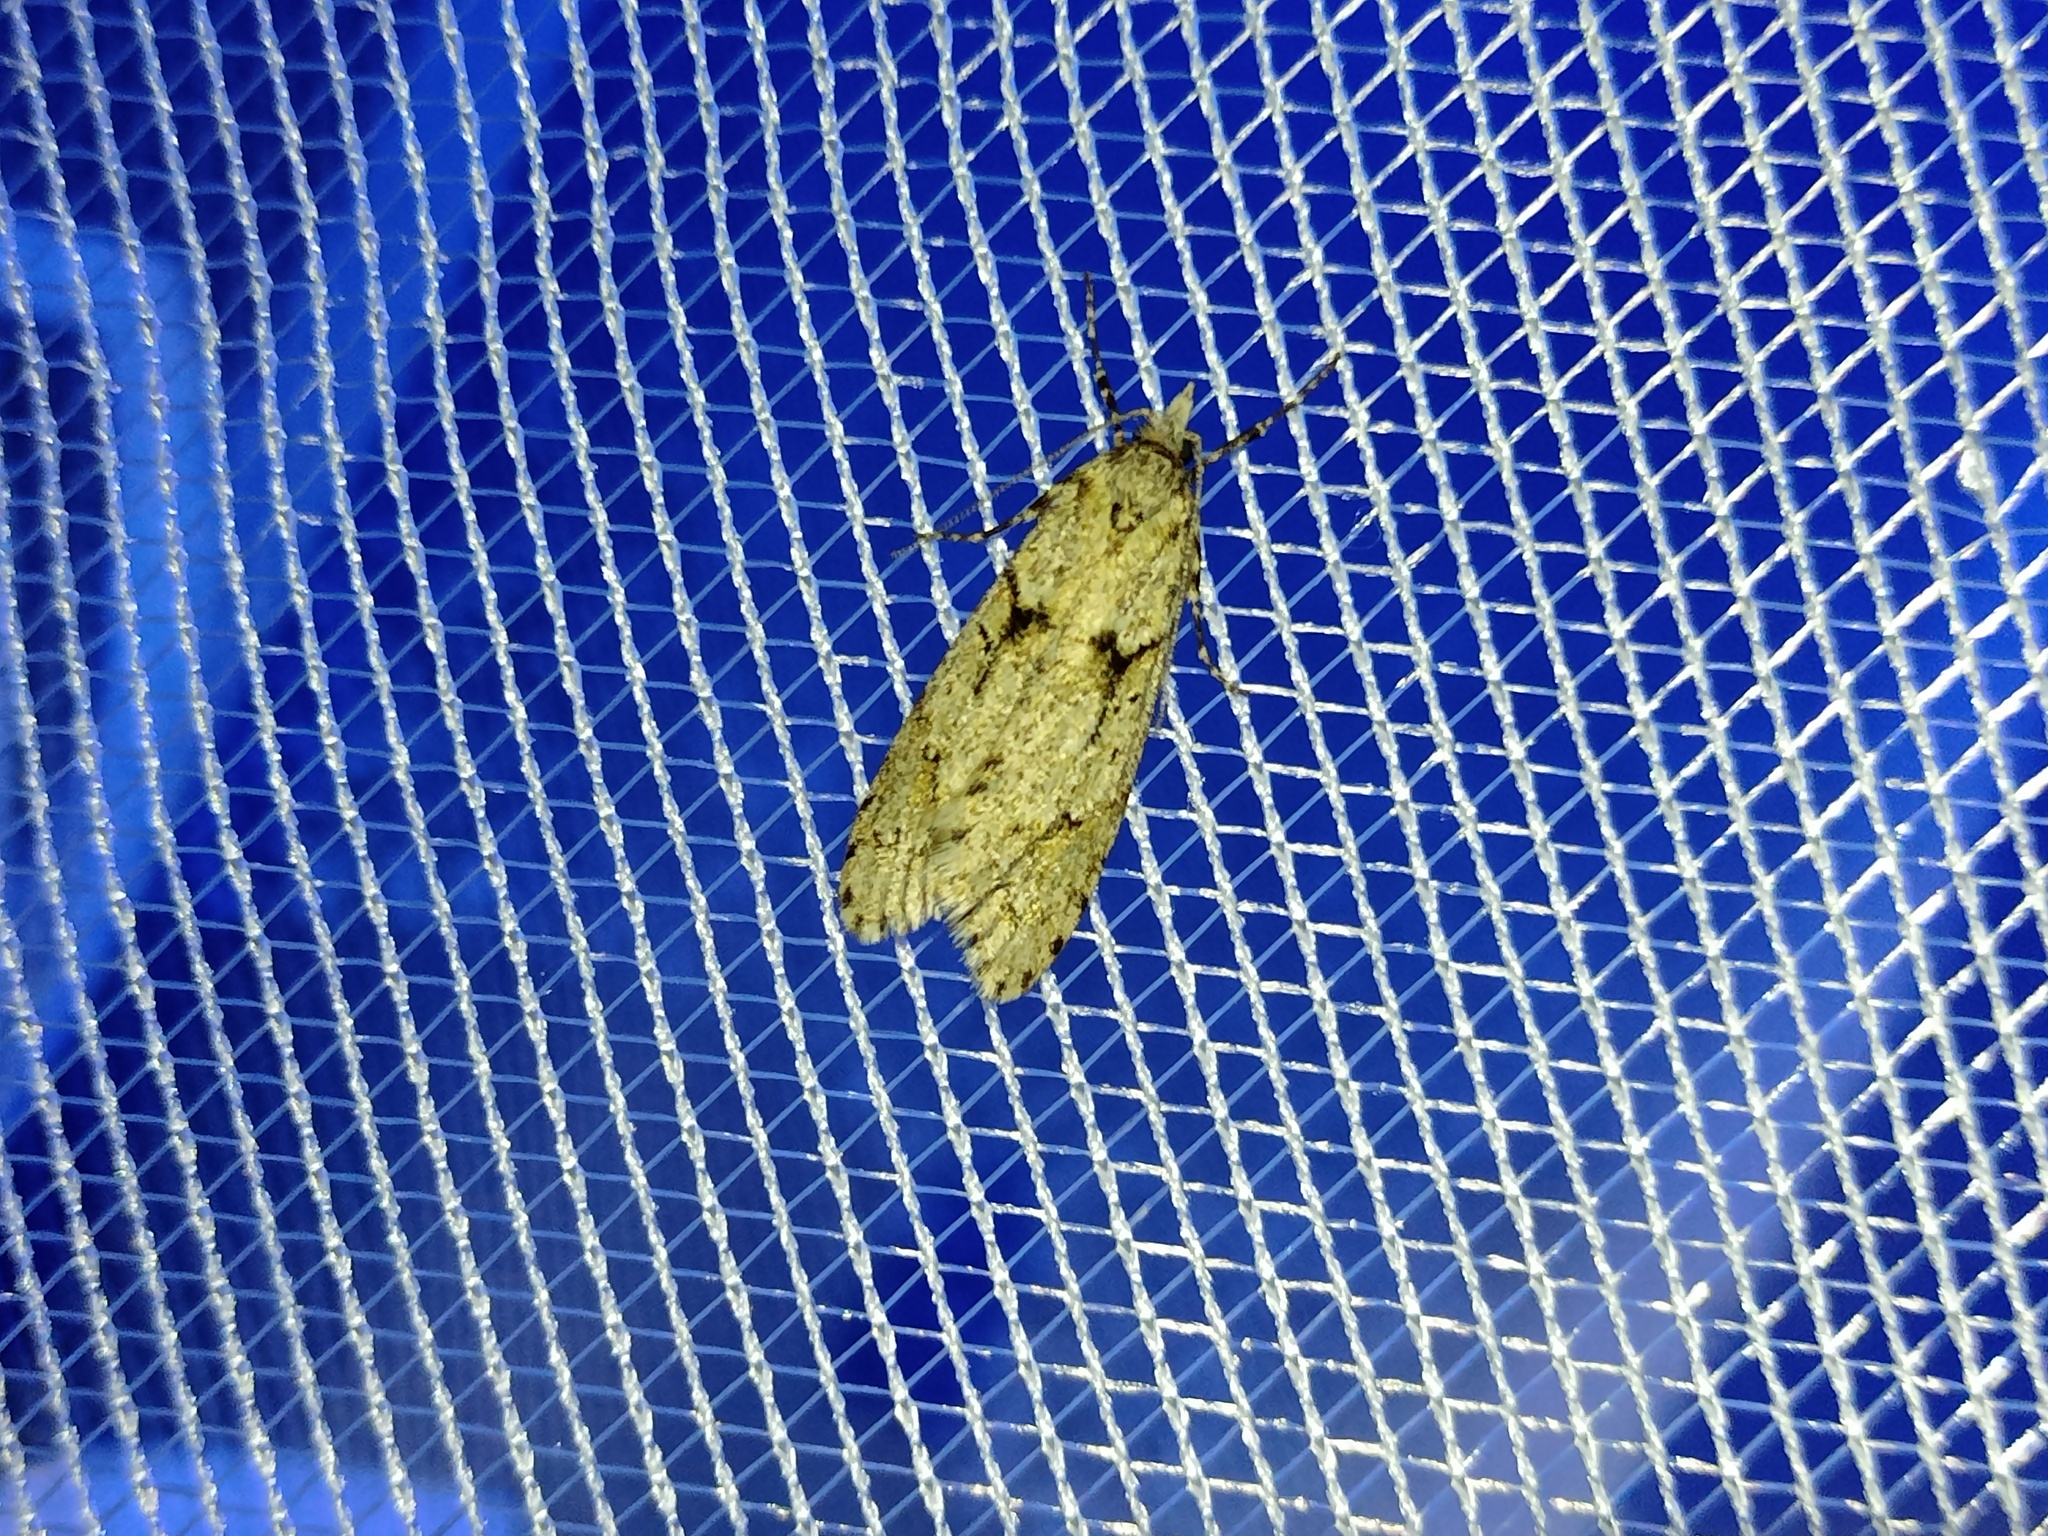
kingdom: Animalia
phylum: Arthropoda
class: Insecta
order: Lepidoptera
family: Lypusidae
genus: Diurnea
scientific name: Diurnea fagella
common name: March tubic
